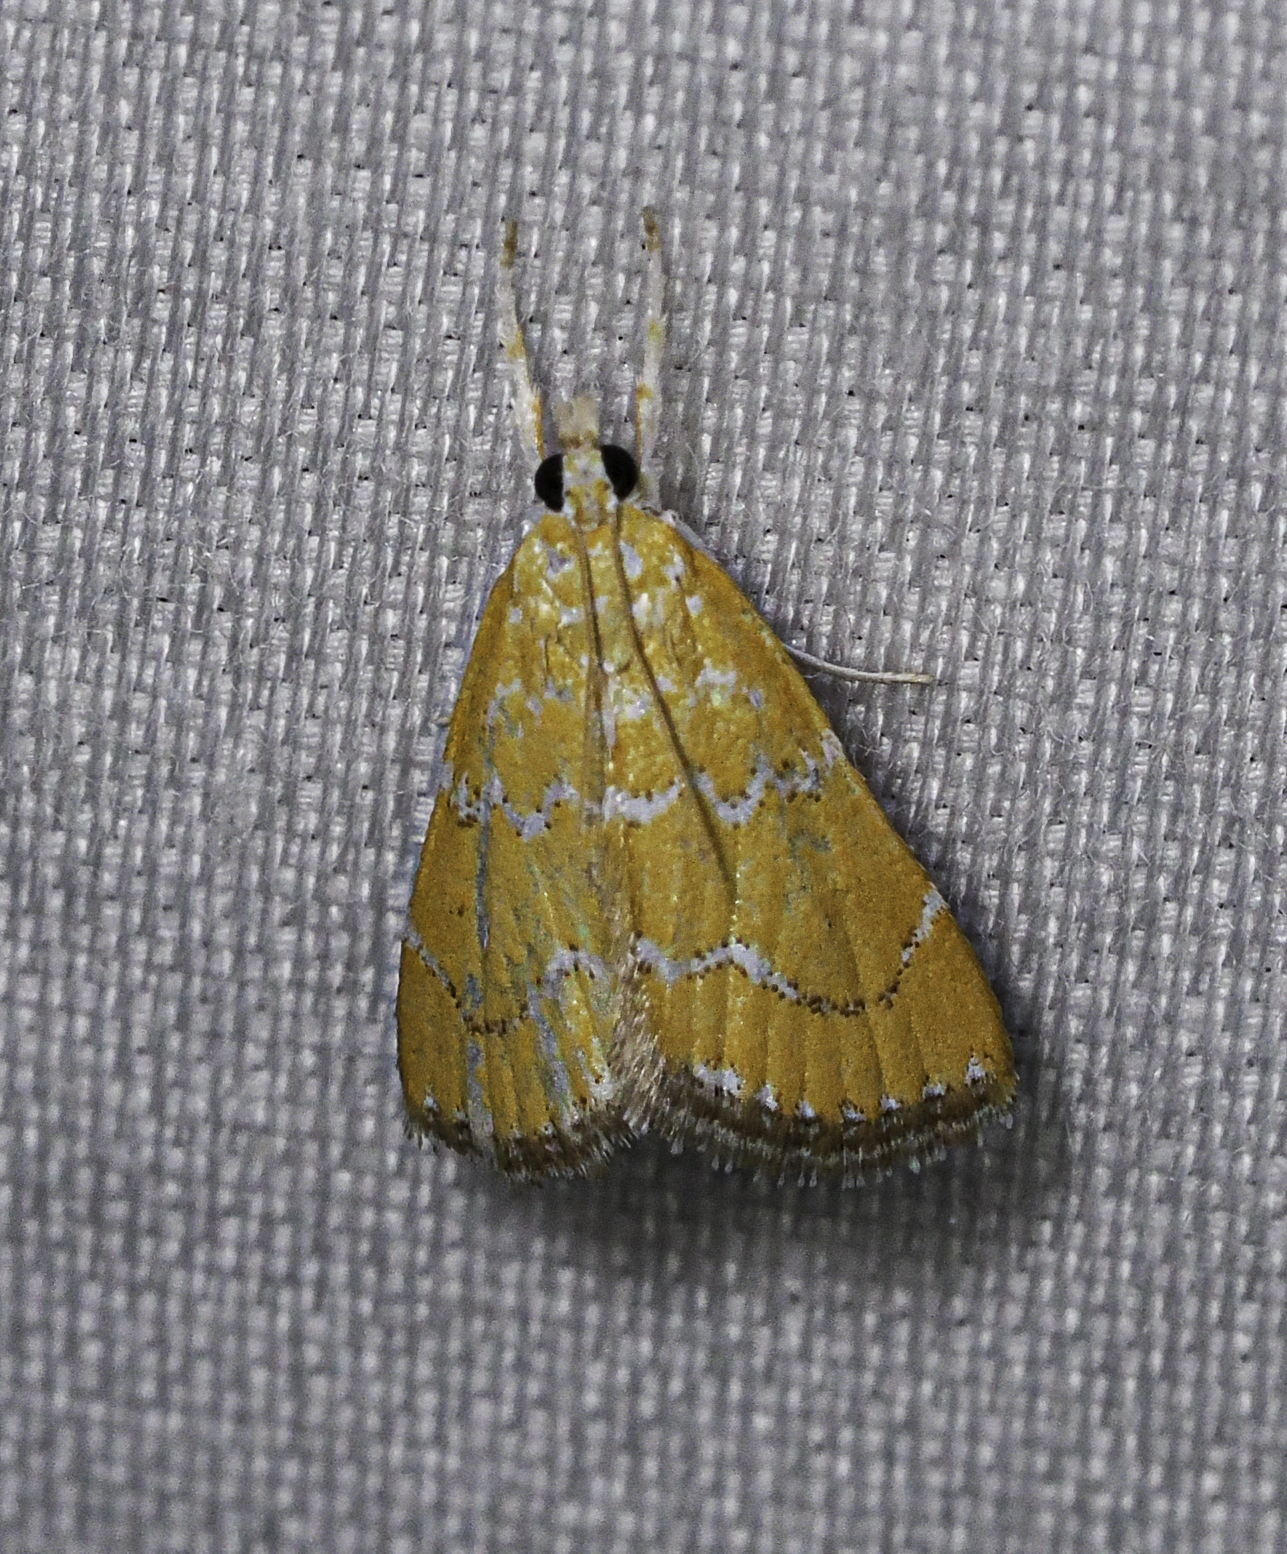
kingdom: Animalia
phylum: Arthropoda
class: Insecta
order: Lepidoptera
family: Crambidae
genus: Xanthophysa
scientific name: Xanthophysa psychicalis
